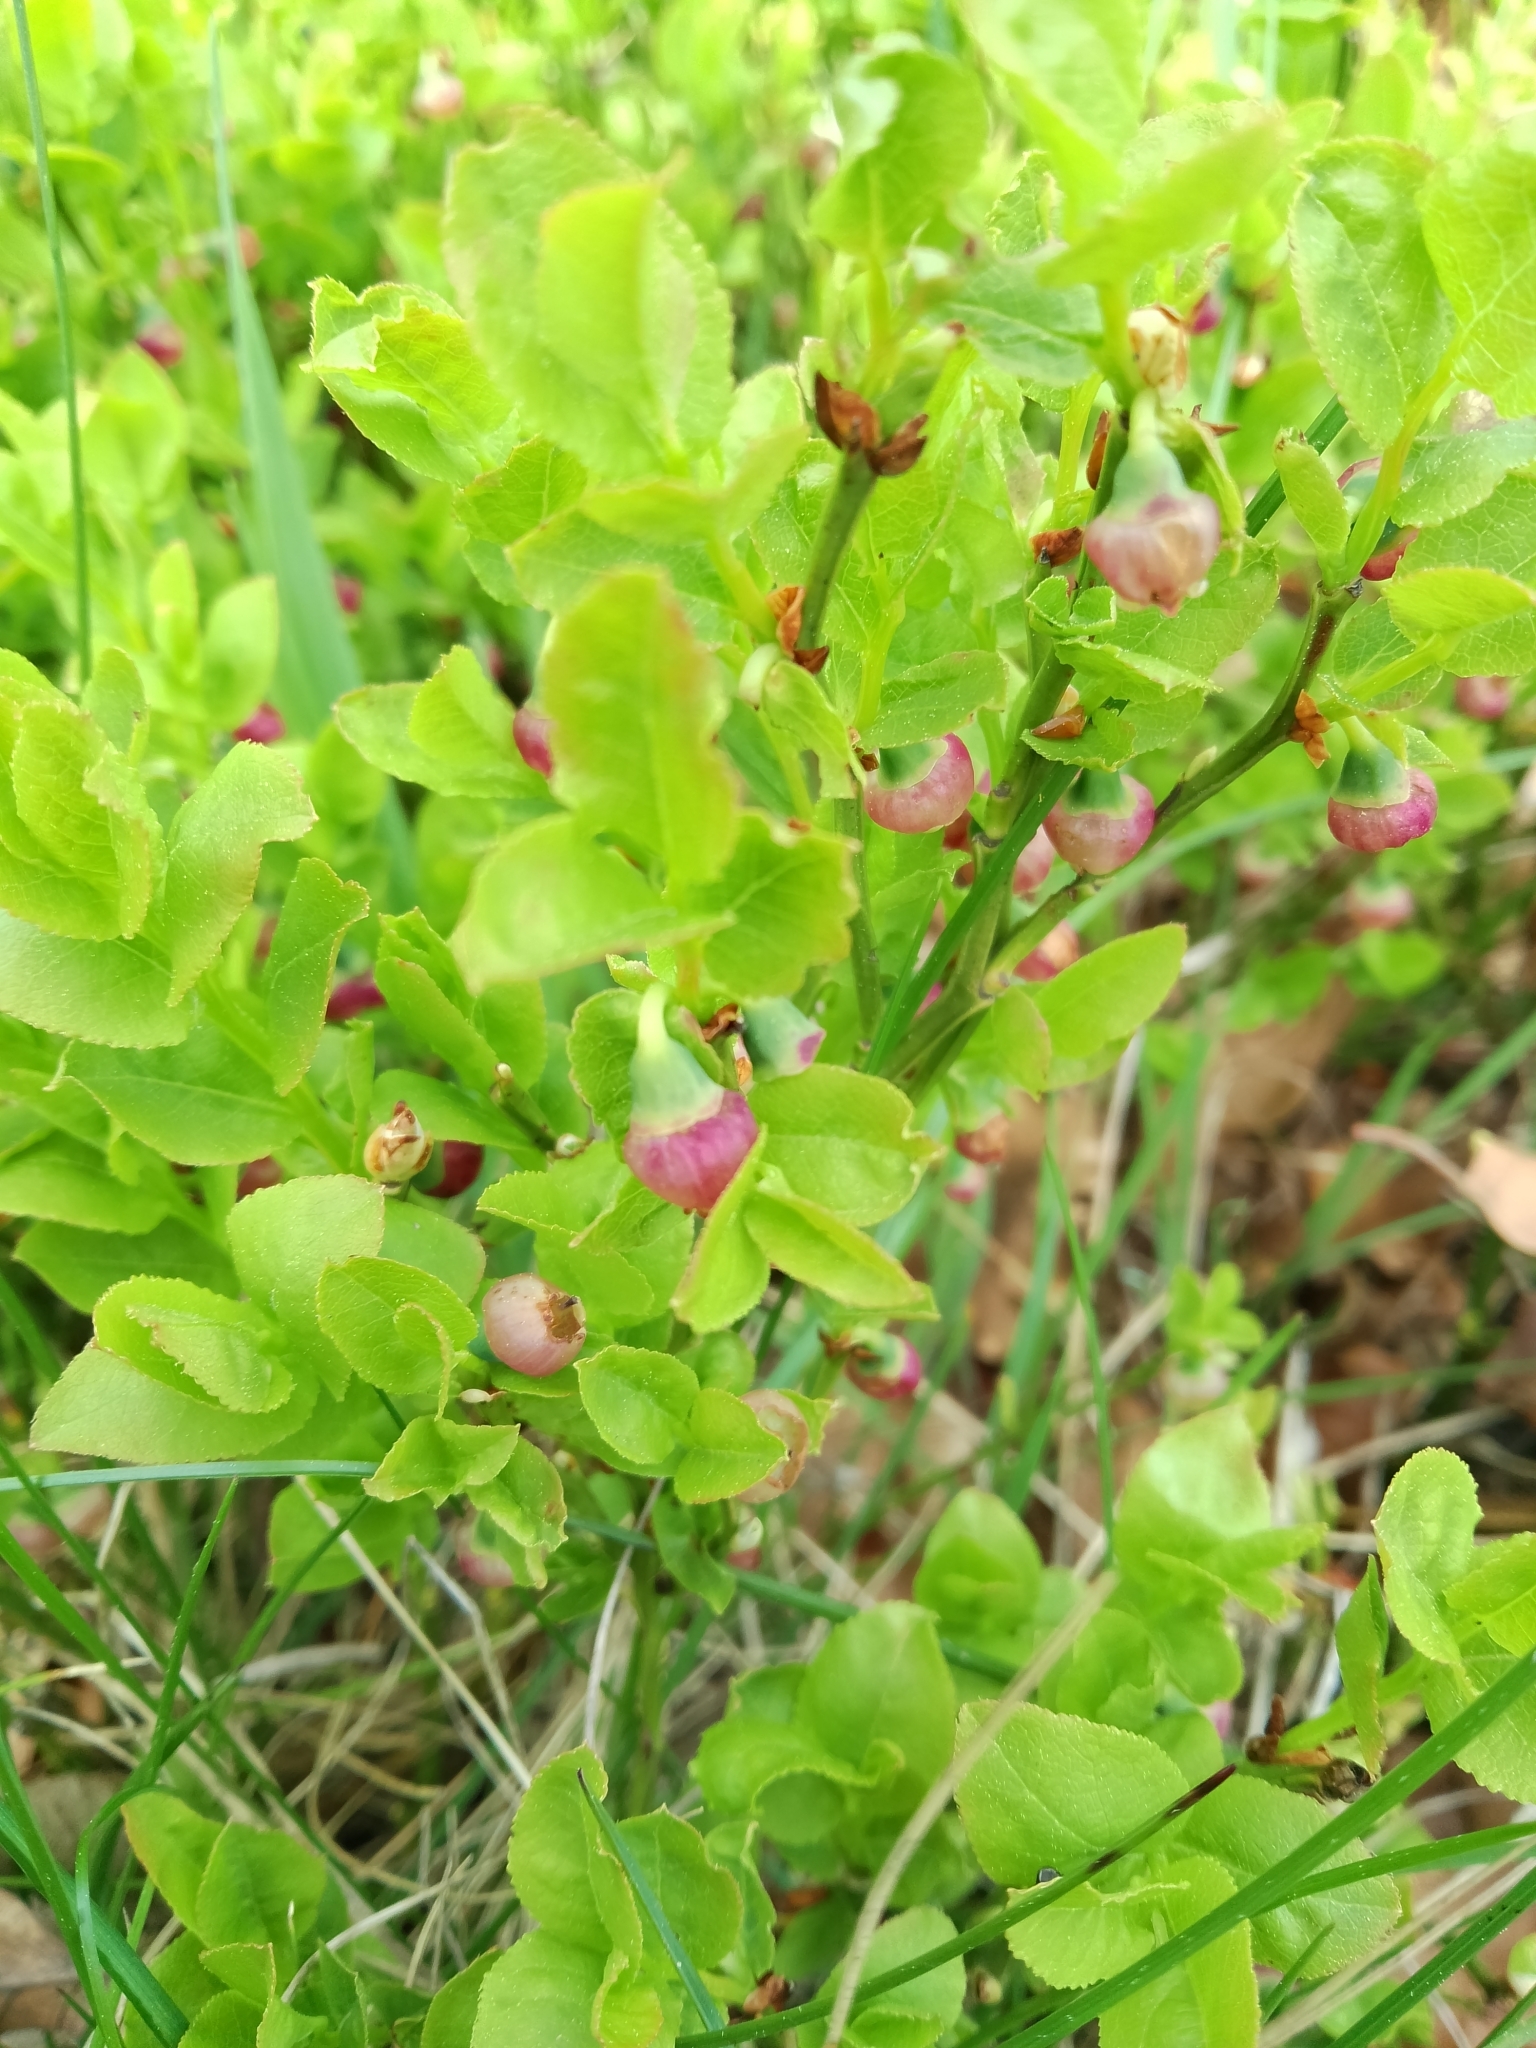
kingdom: Plantae
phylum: Tracheophyta
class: Magnoliopsida
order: Ericales
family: Ericaceae
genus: Vaccinium
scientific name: Vaccinium myrtillus
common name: Bilberry
